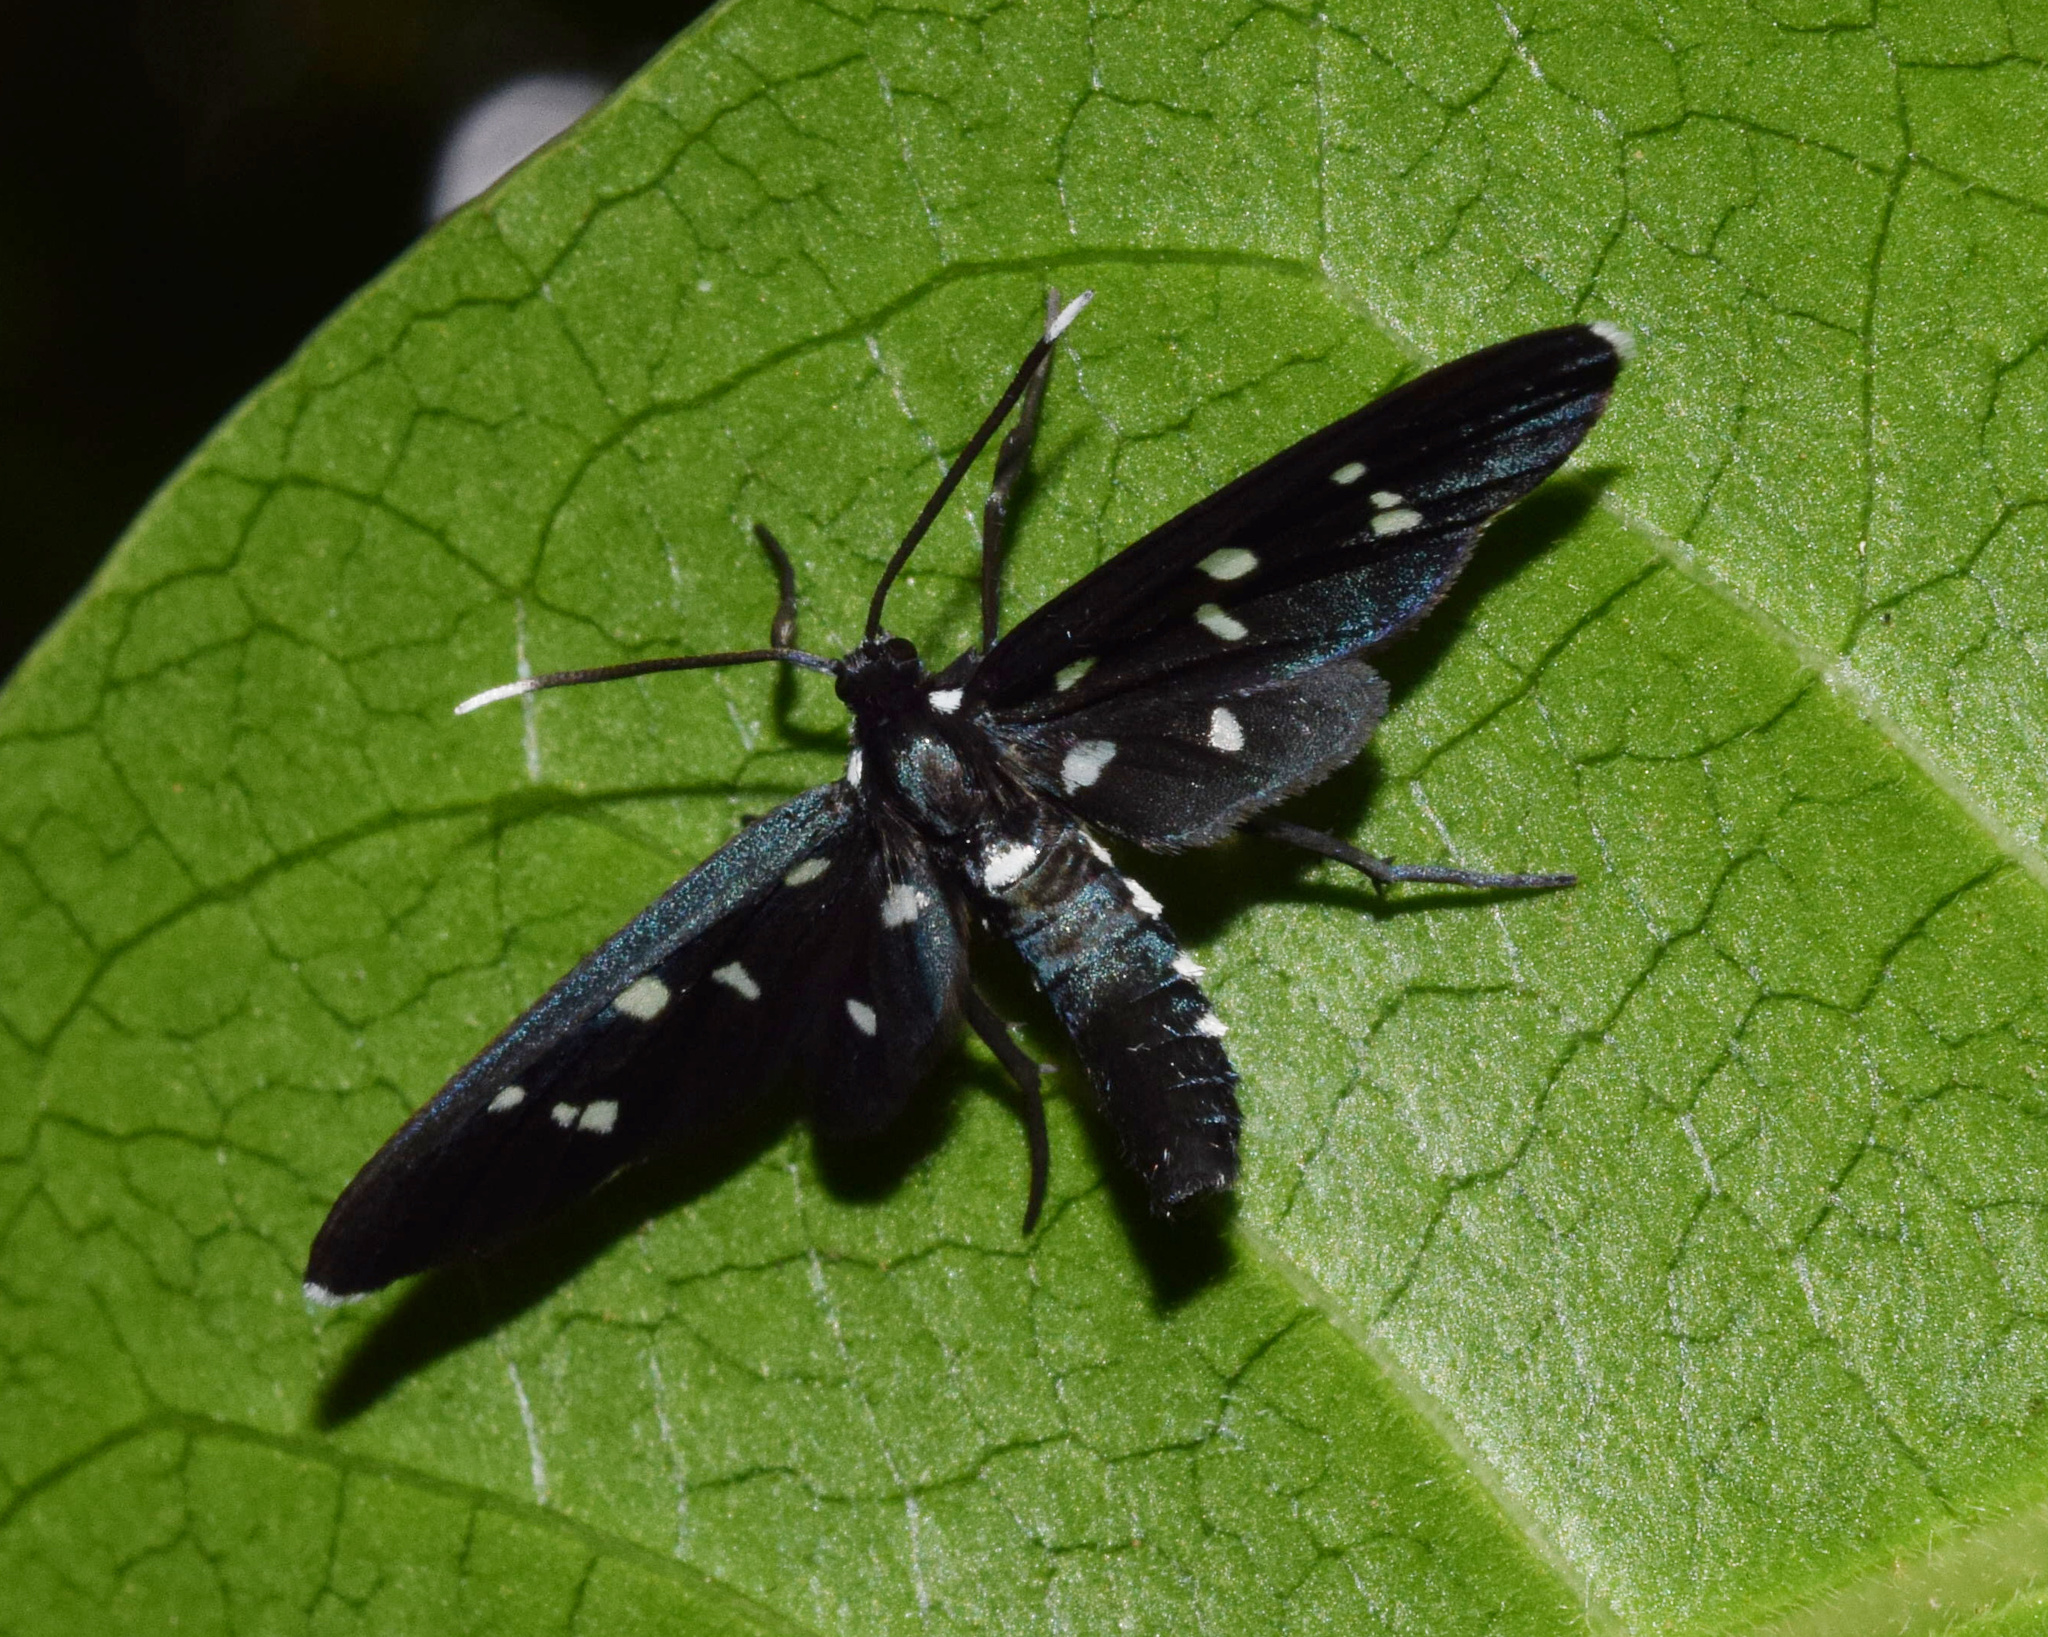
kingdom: Animalia
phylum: Arthropoda
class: Insecta
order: Lepidoptera
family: Erebidae
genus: Ceryx
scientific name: Ceryx longipes
